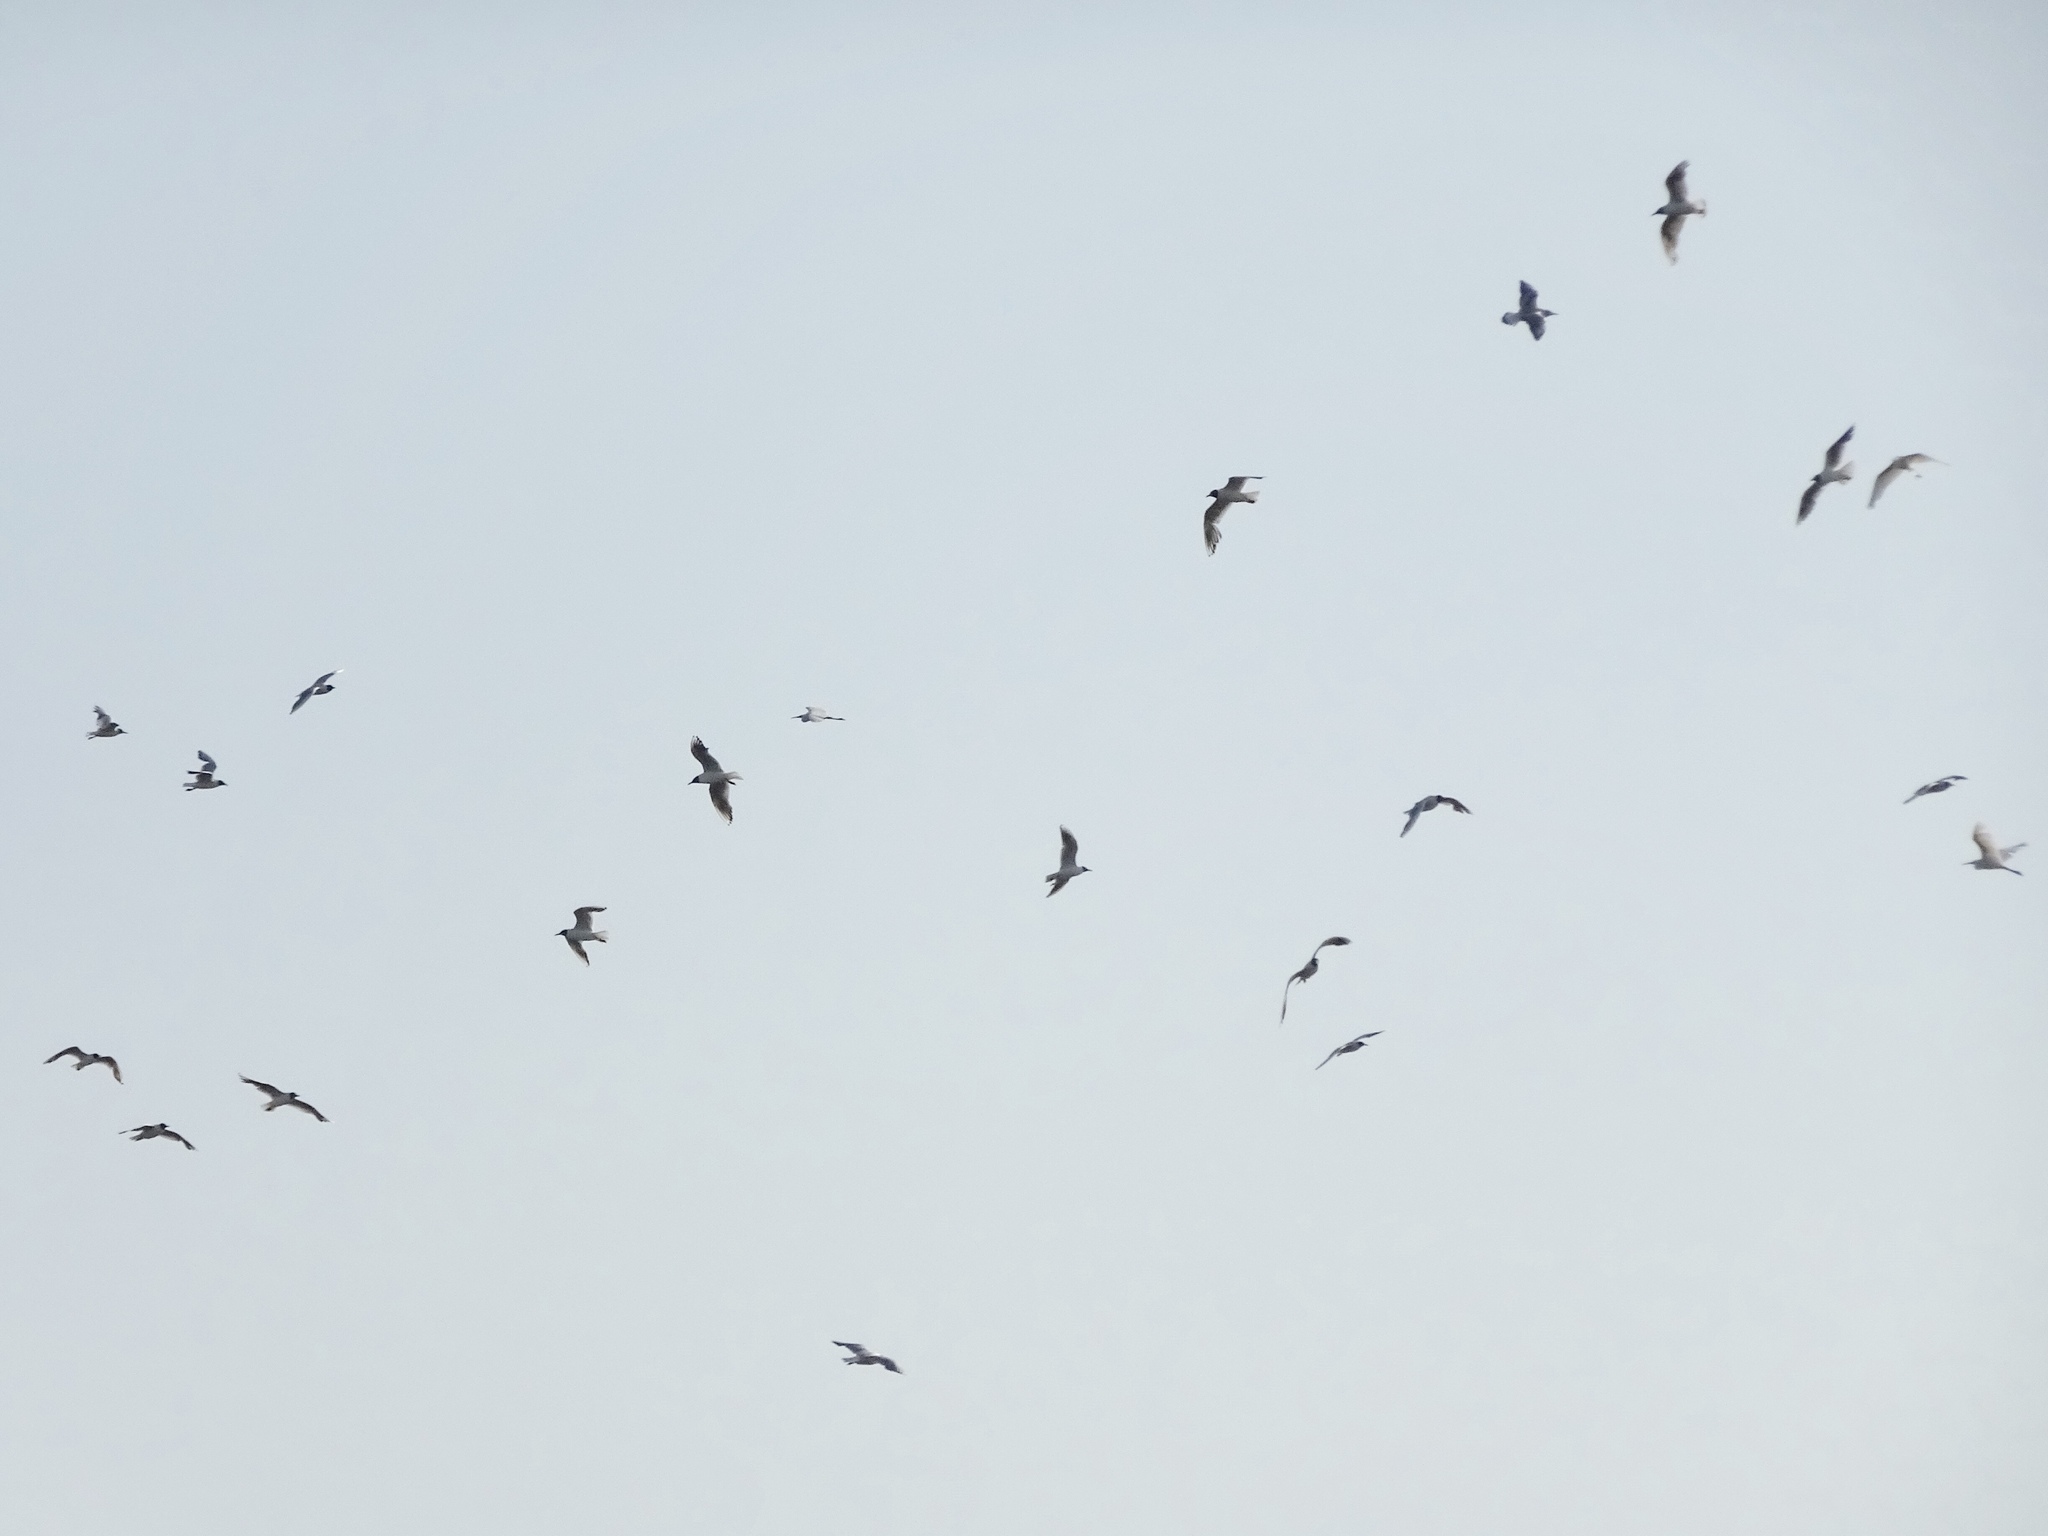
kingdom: Animalia
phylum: Chordata
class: Aves
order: Charadriiformes
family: Laridae
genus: Chroicocephalus
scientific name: Chroicocephalus ridibundus
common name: Black-headed gull
